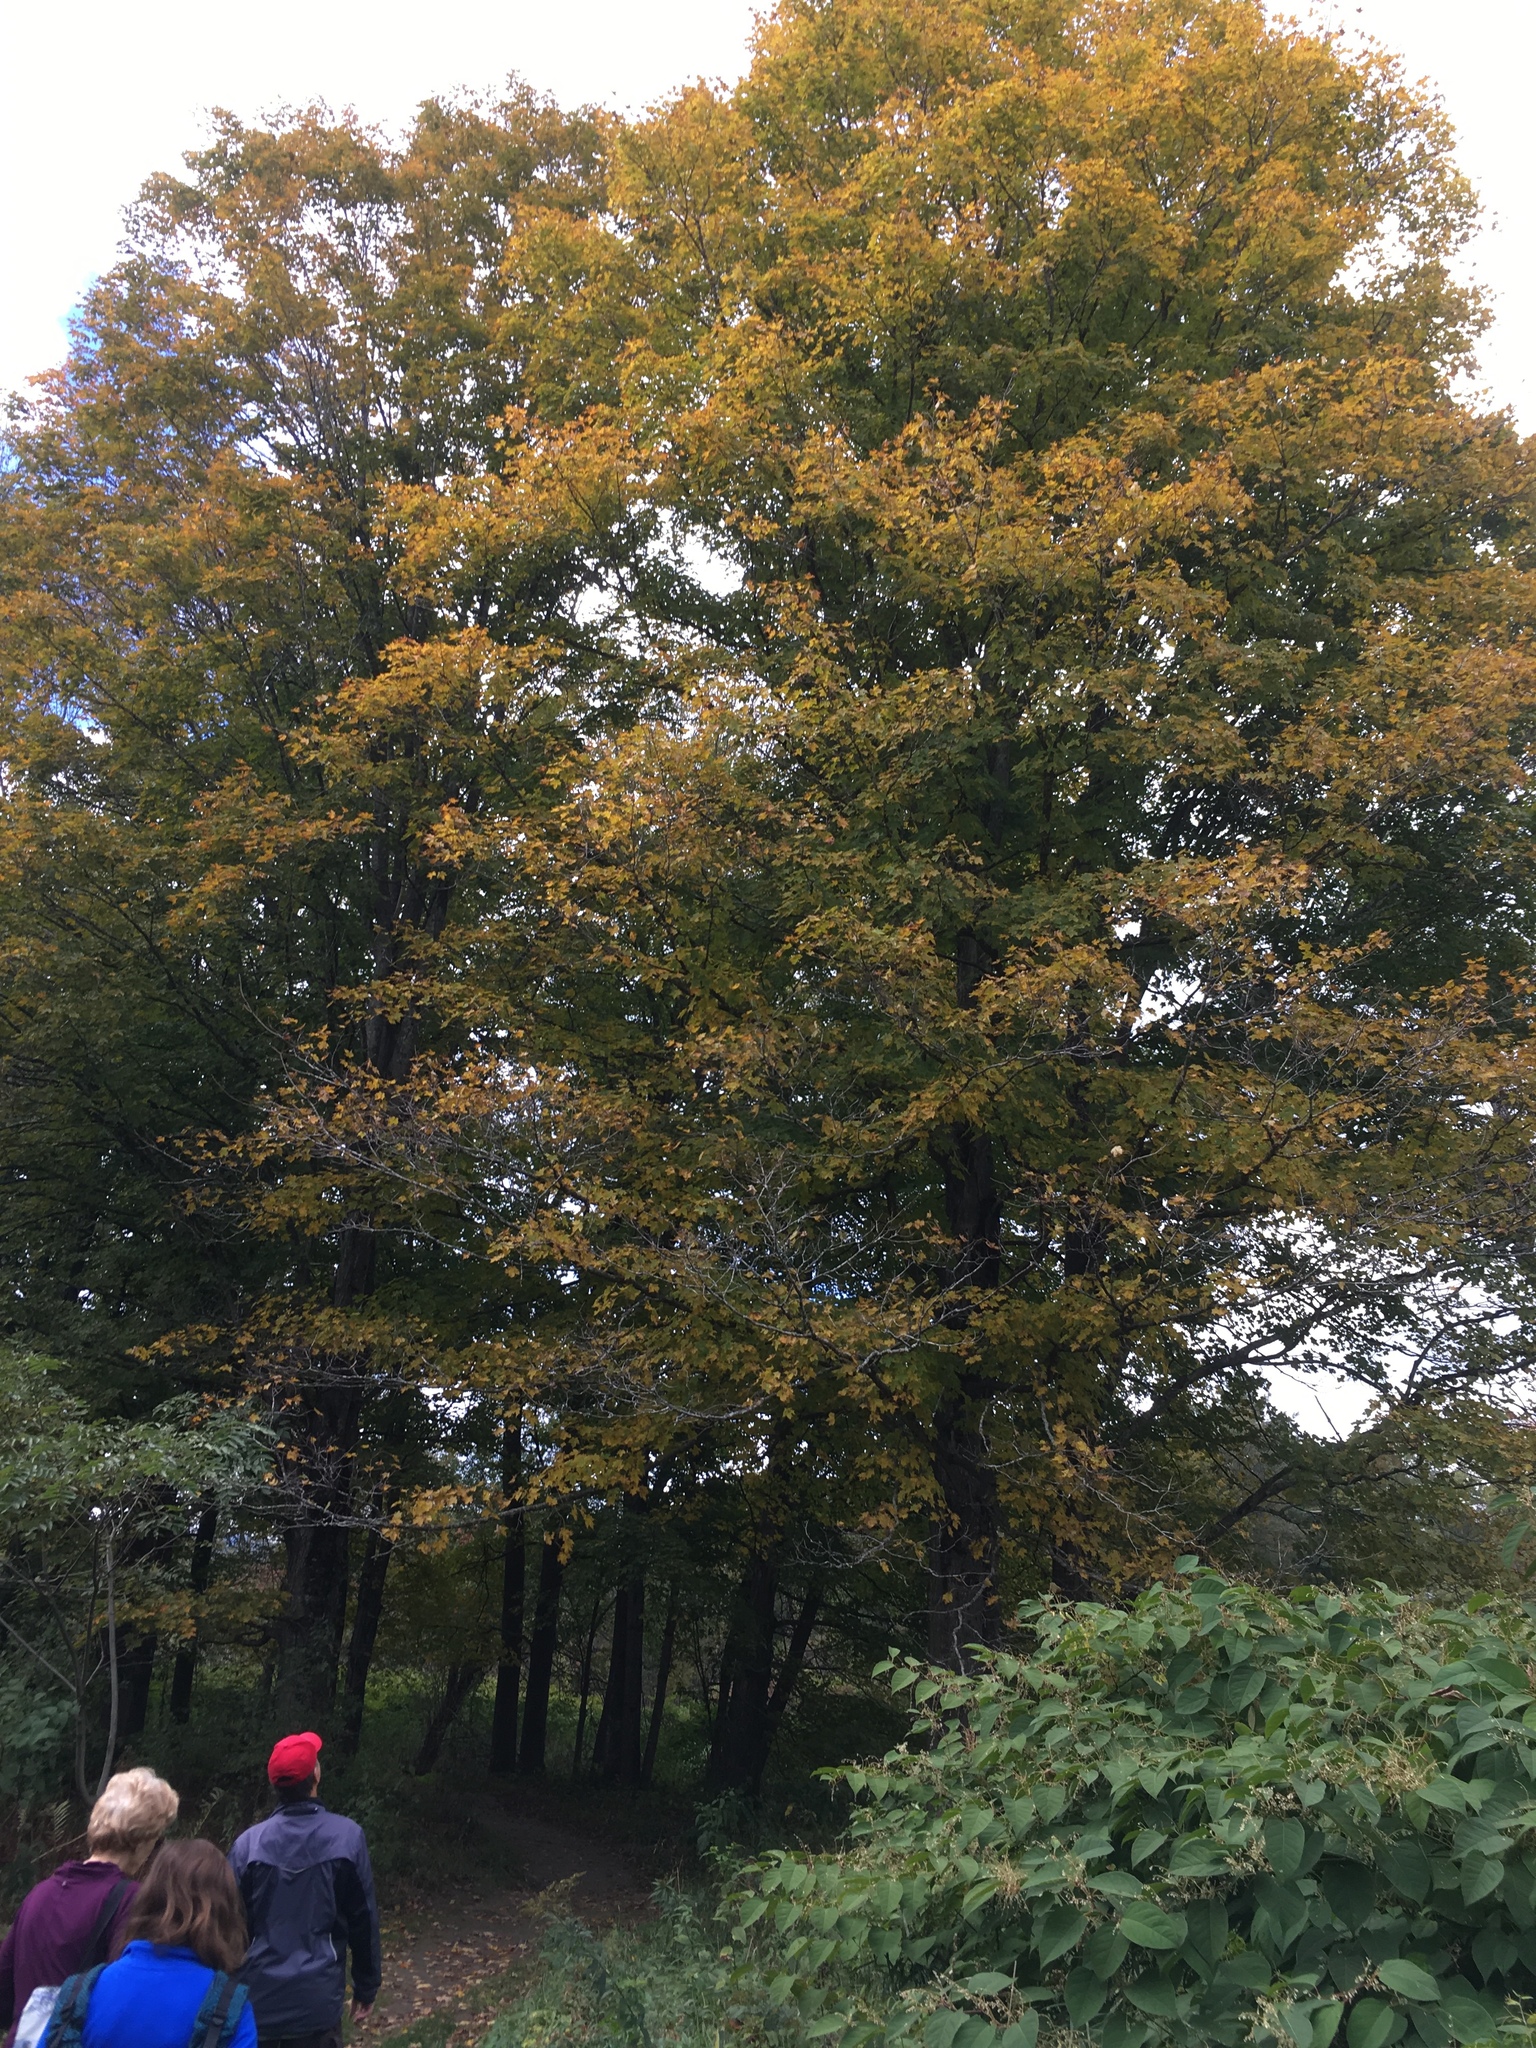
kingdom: Plantae
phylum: Tracheophyta
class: Magnoliopsida
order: Sapindales
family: Sapindaceae
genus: Acer
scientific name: Acer saccharum
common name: Sugar maple
